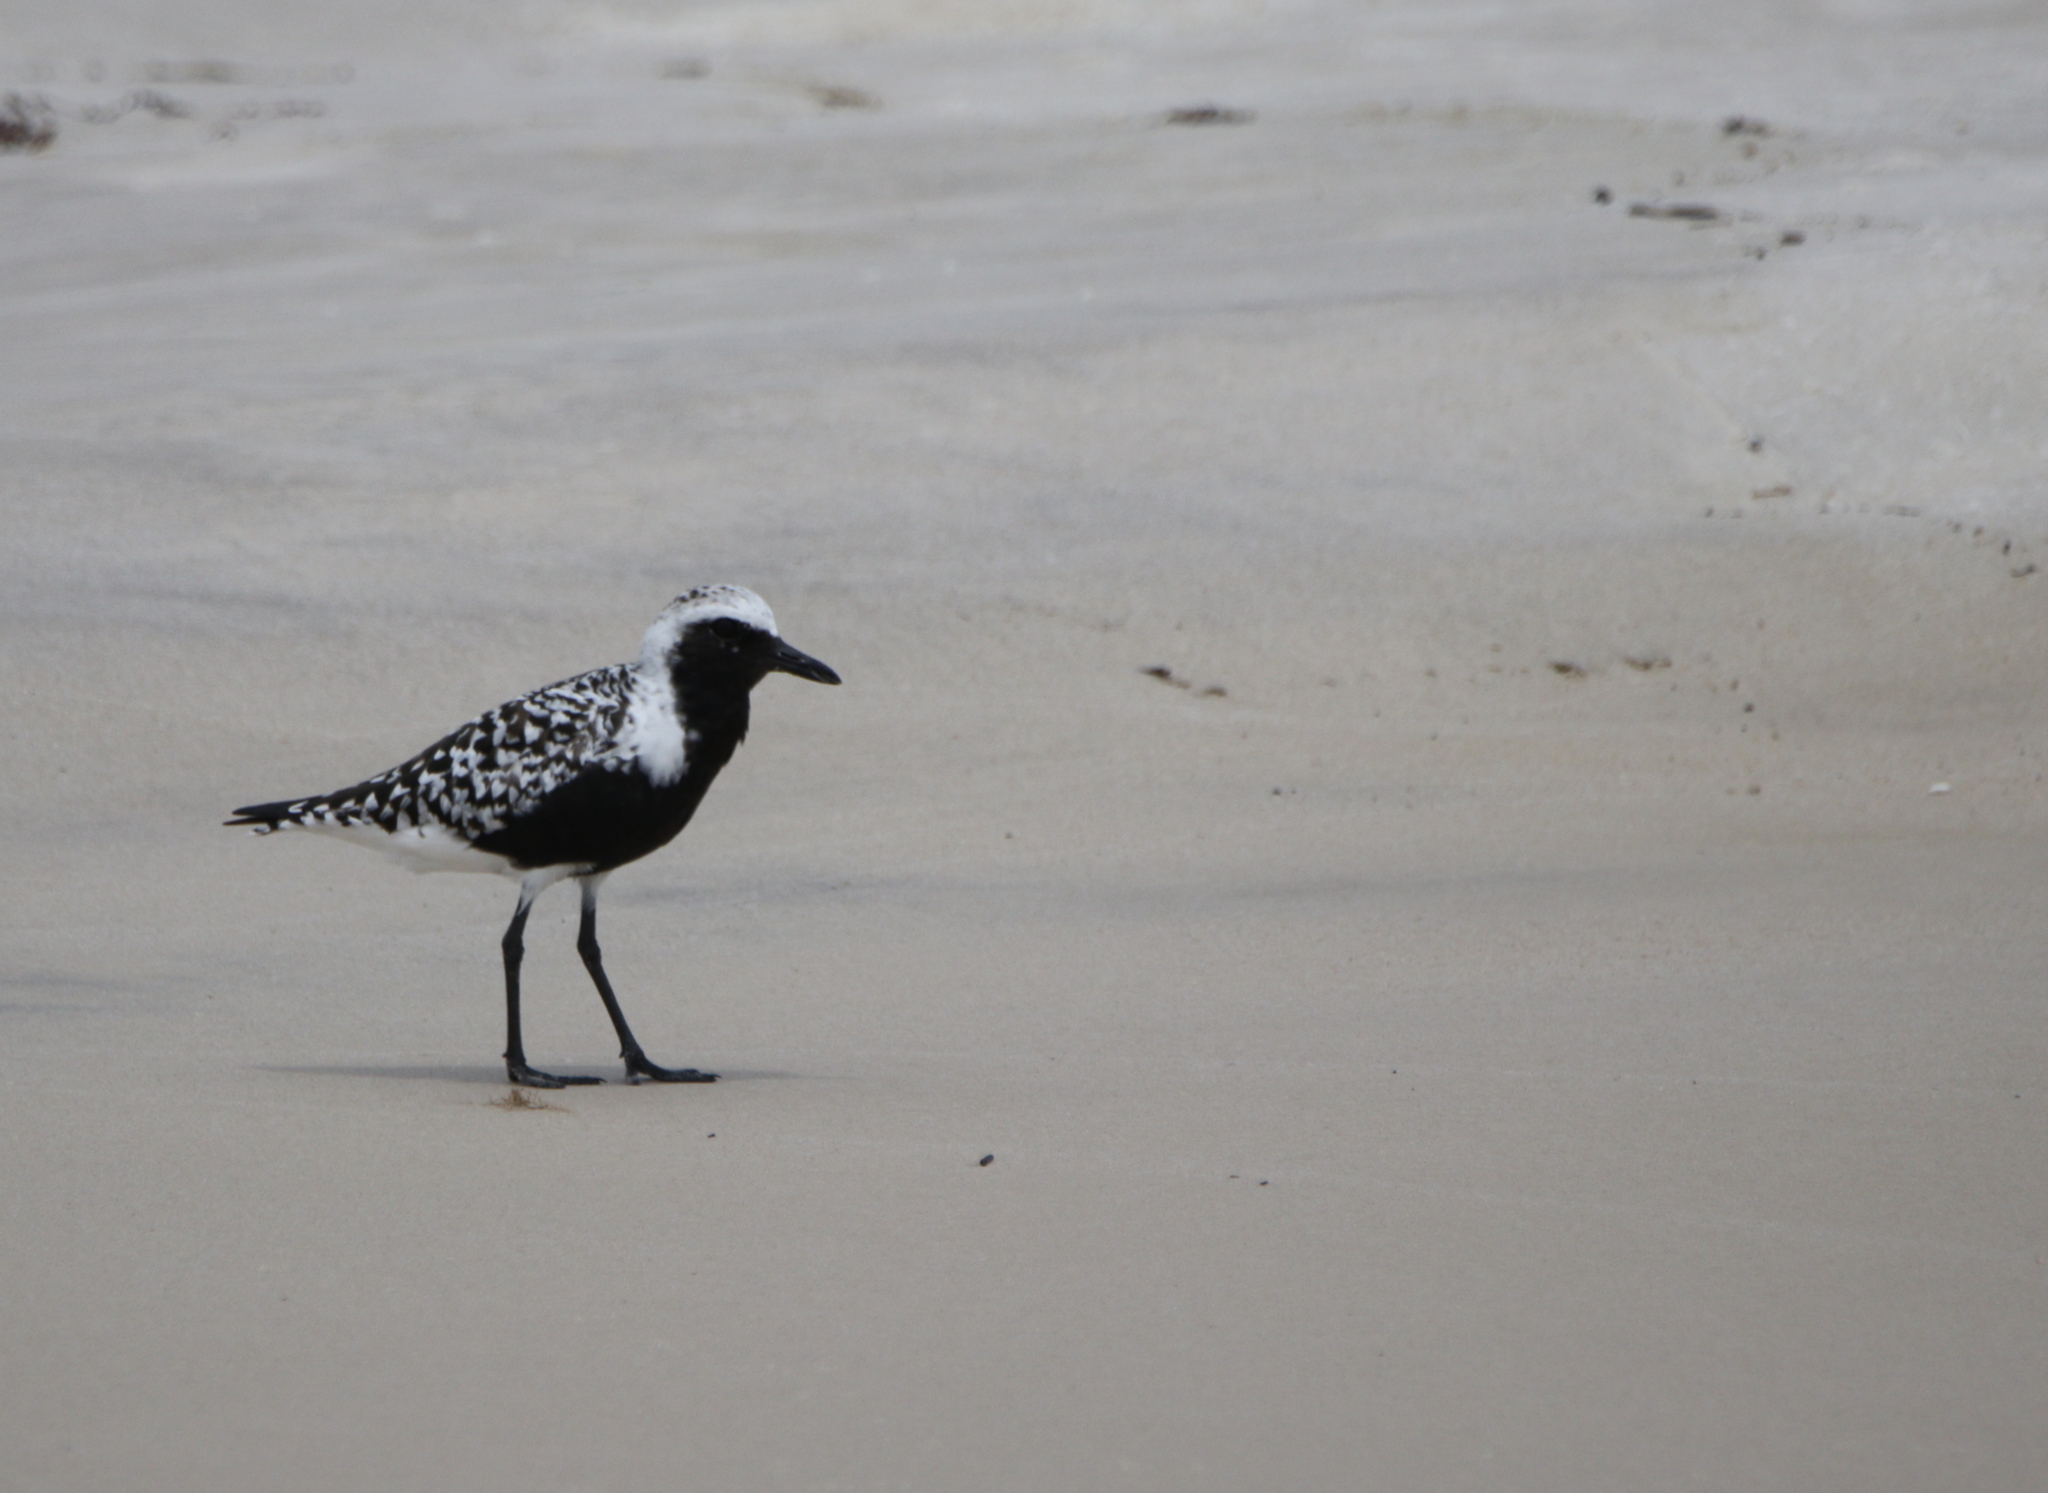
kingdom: Animalia
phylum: Chordata
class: Aves
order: Charadriiformes
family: Charadriidae
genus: Pluvialis
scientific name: Pluvialis squatarola
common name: Grey plover
